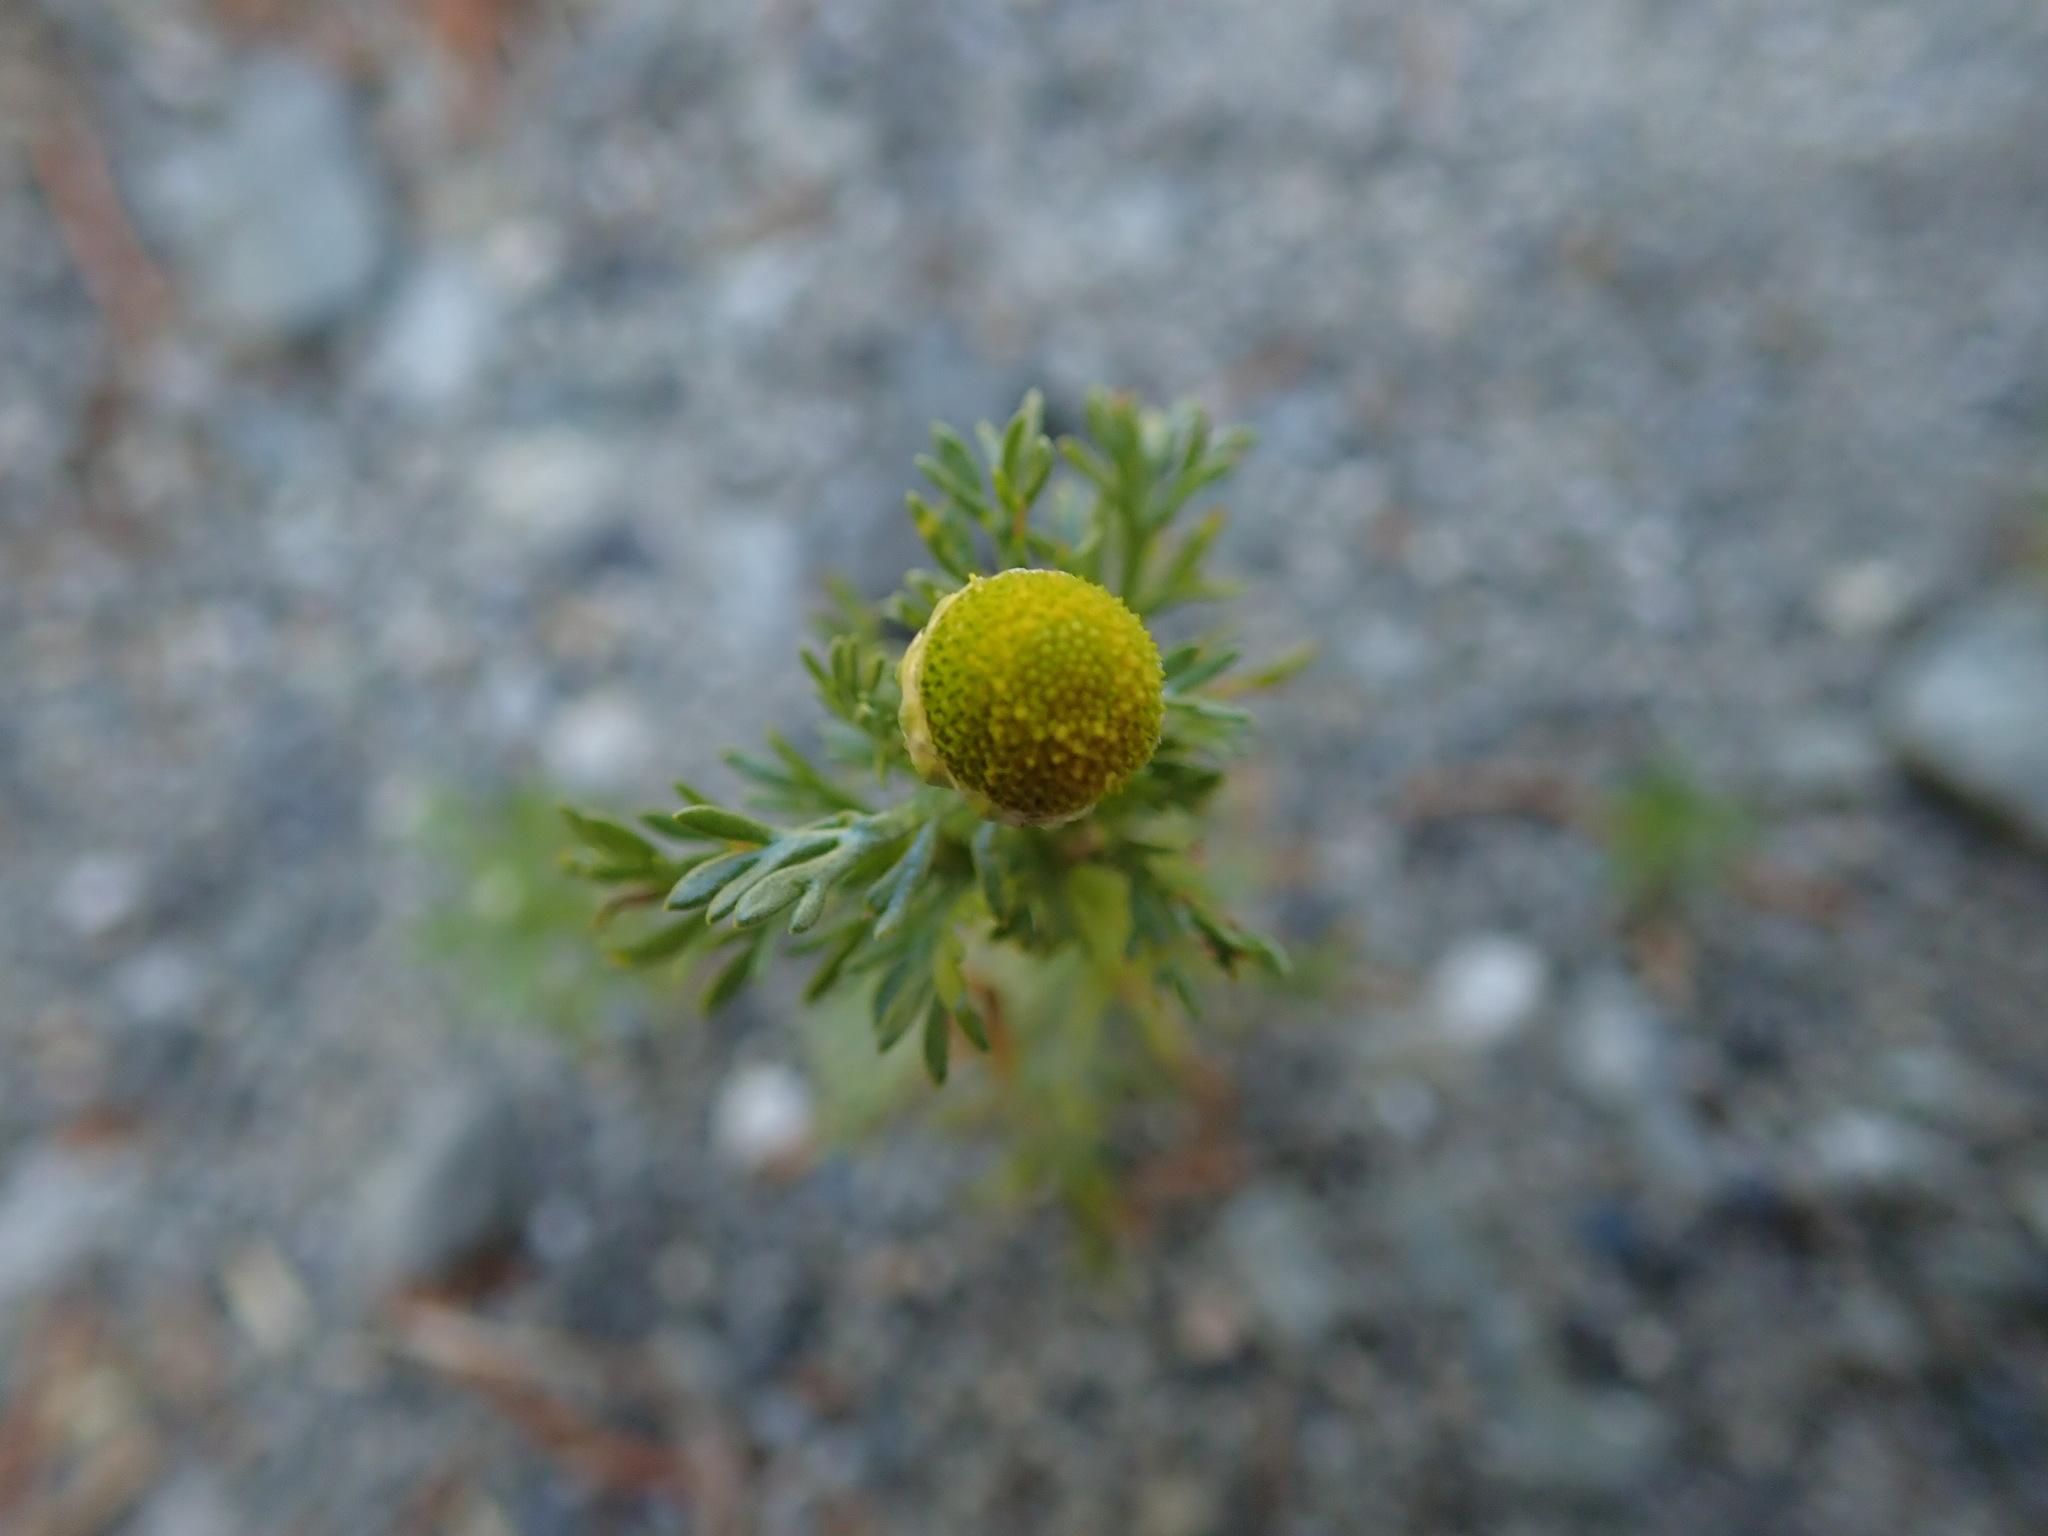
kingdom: Plantae
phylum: Tracheophyta
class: Magnoliopsida
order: Asterales
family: Asteraceae
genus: Matricaria
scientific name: Matricaria discoidea
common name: Disc mayweed
